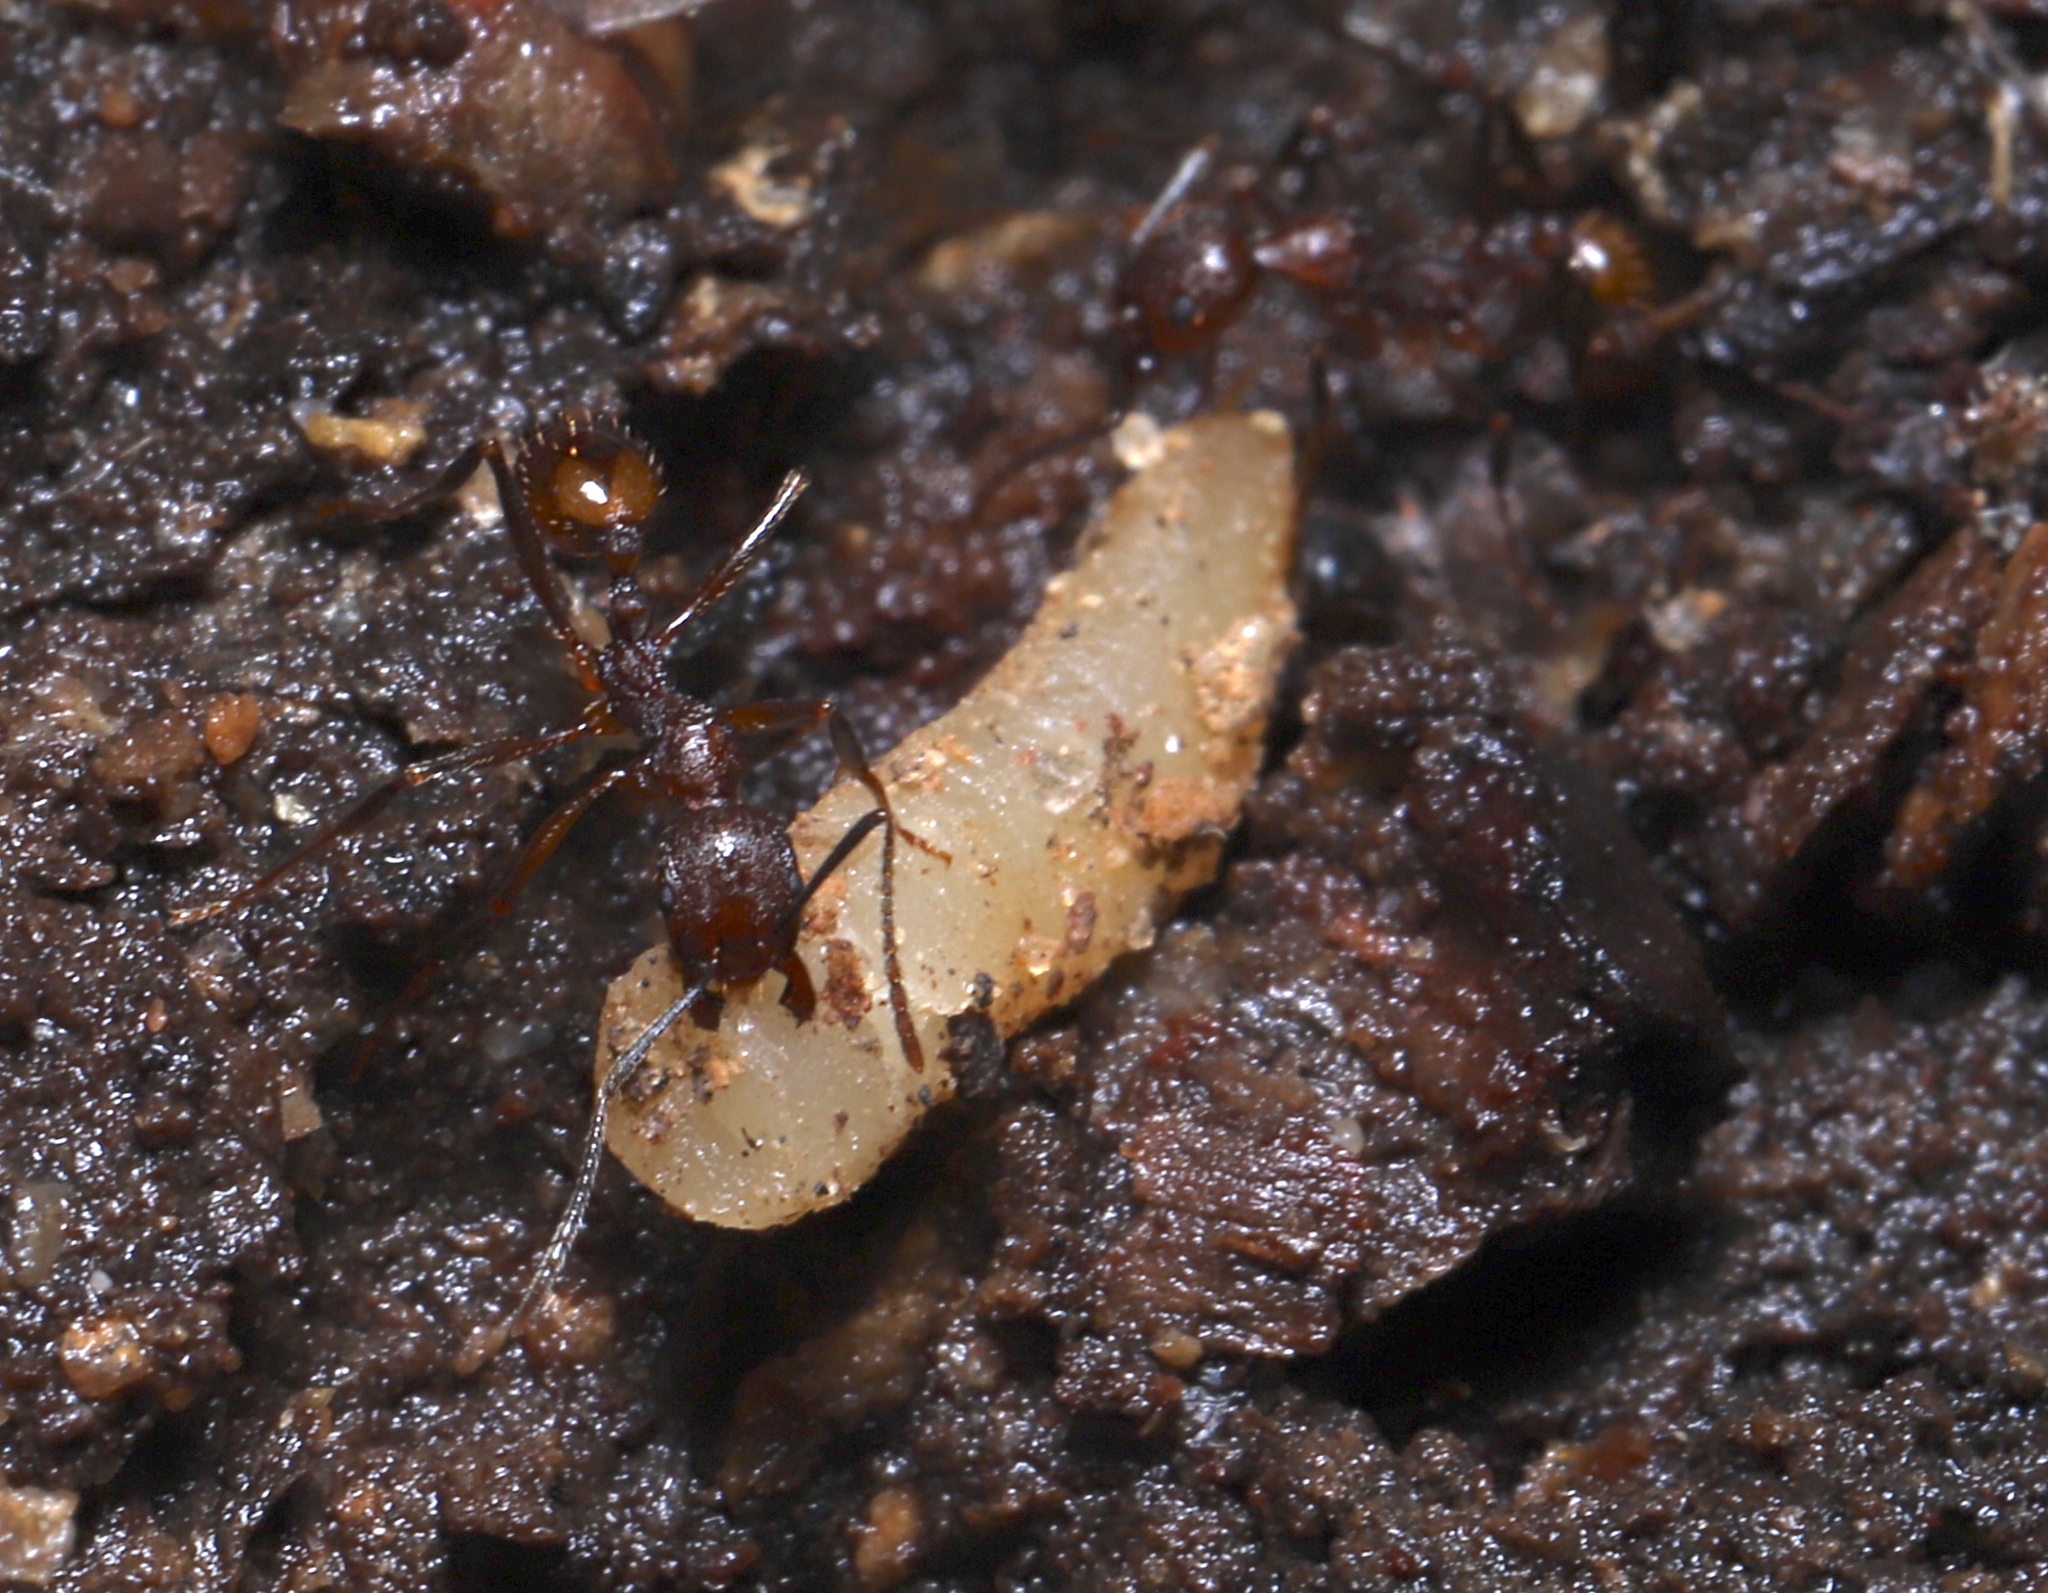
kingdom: Animalia
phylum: Arthropoda
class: Insecta
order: Hymenoptera
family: Formicidae
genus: Aphaenogaster
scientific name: Aphaenogaster fulva
